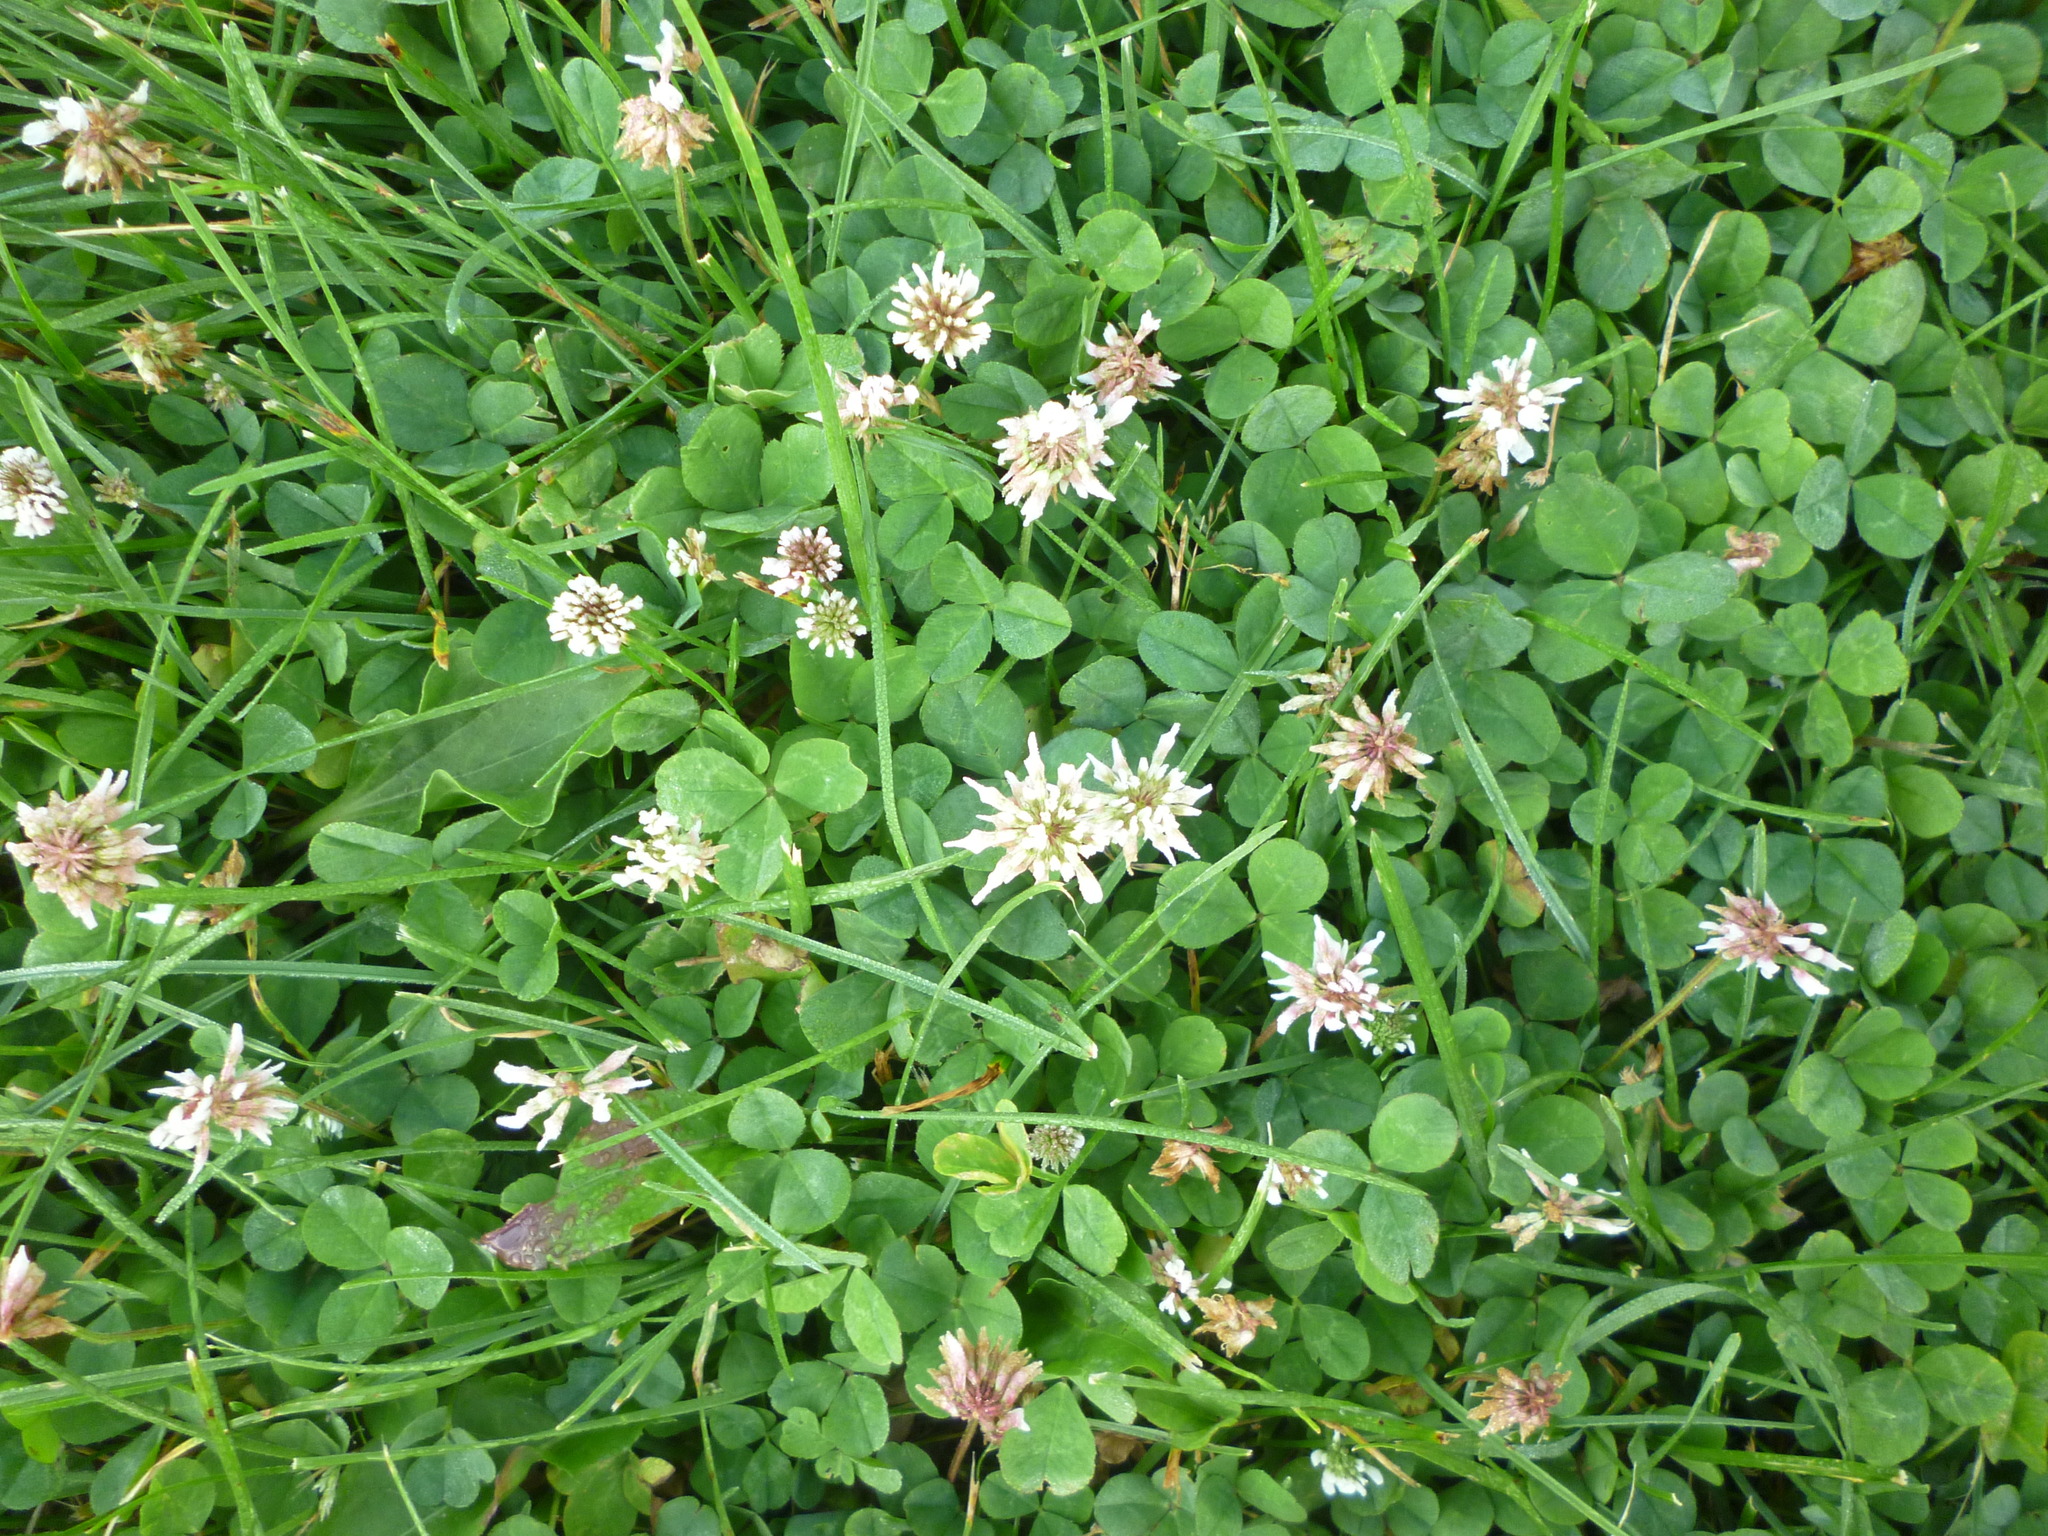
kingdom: Plantae
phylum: Tracheophyta
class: Magnoliopsida
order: Fabales
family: Fabaceae
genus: Trifolium
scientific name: Trifolium repens
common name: White clover
